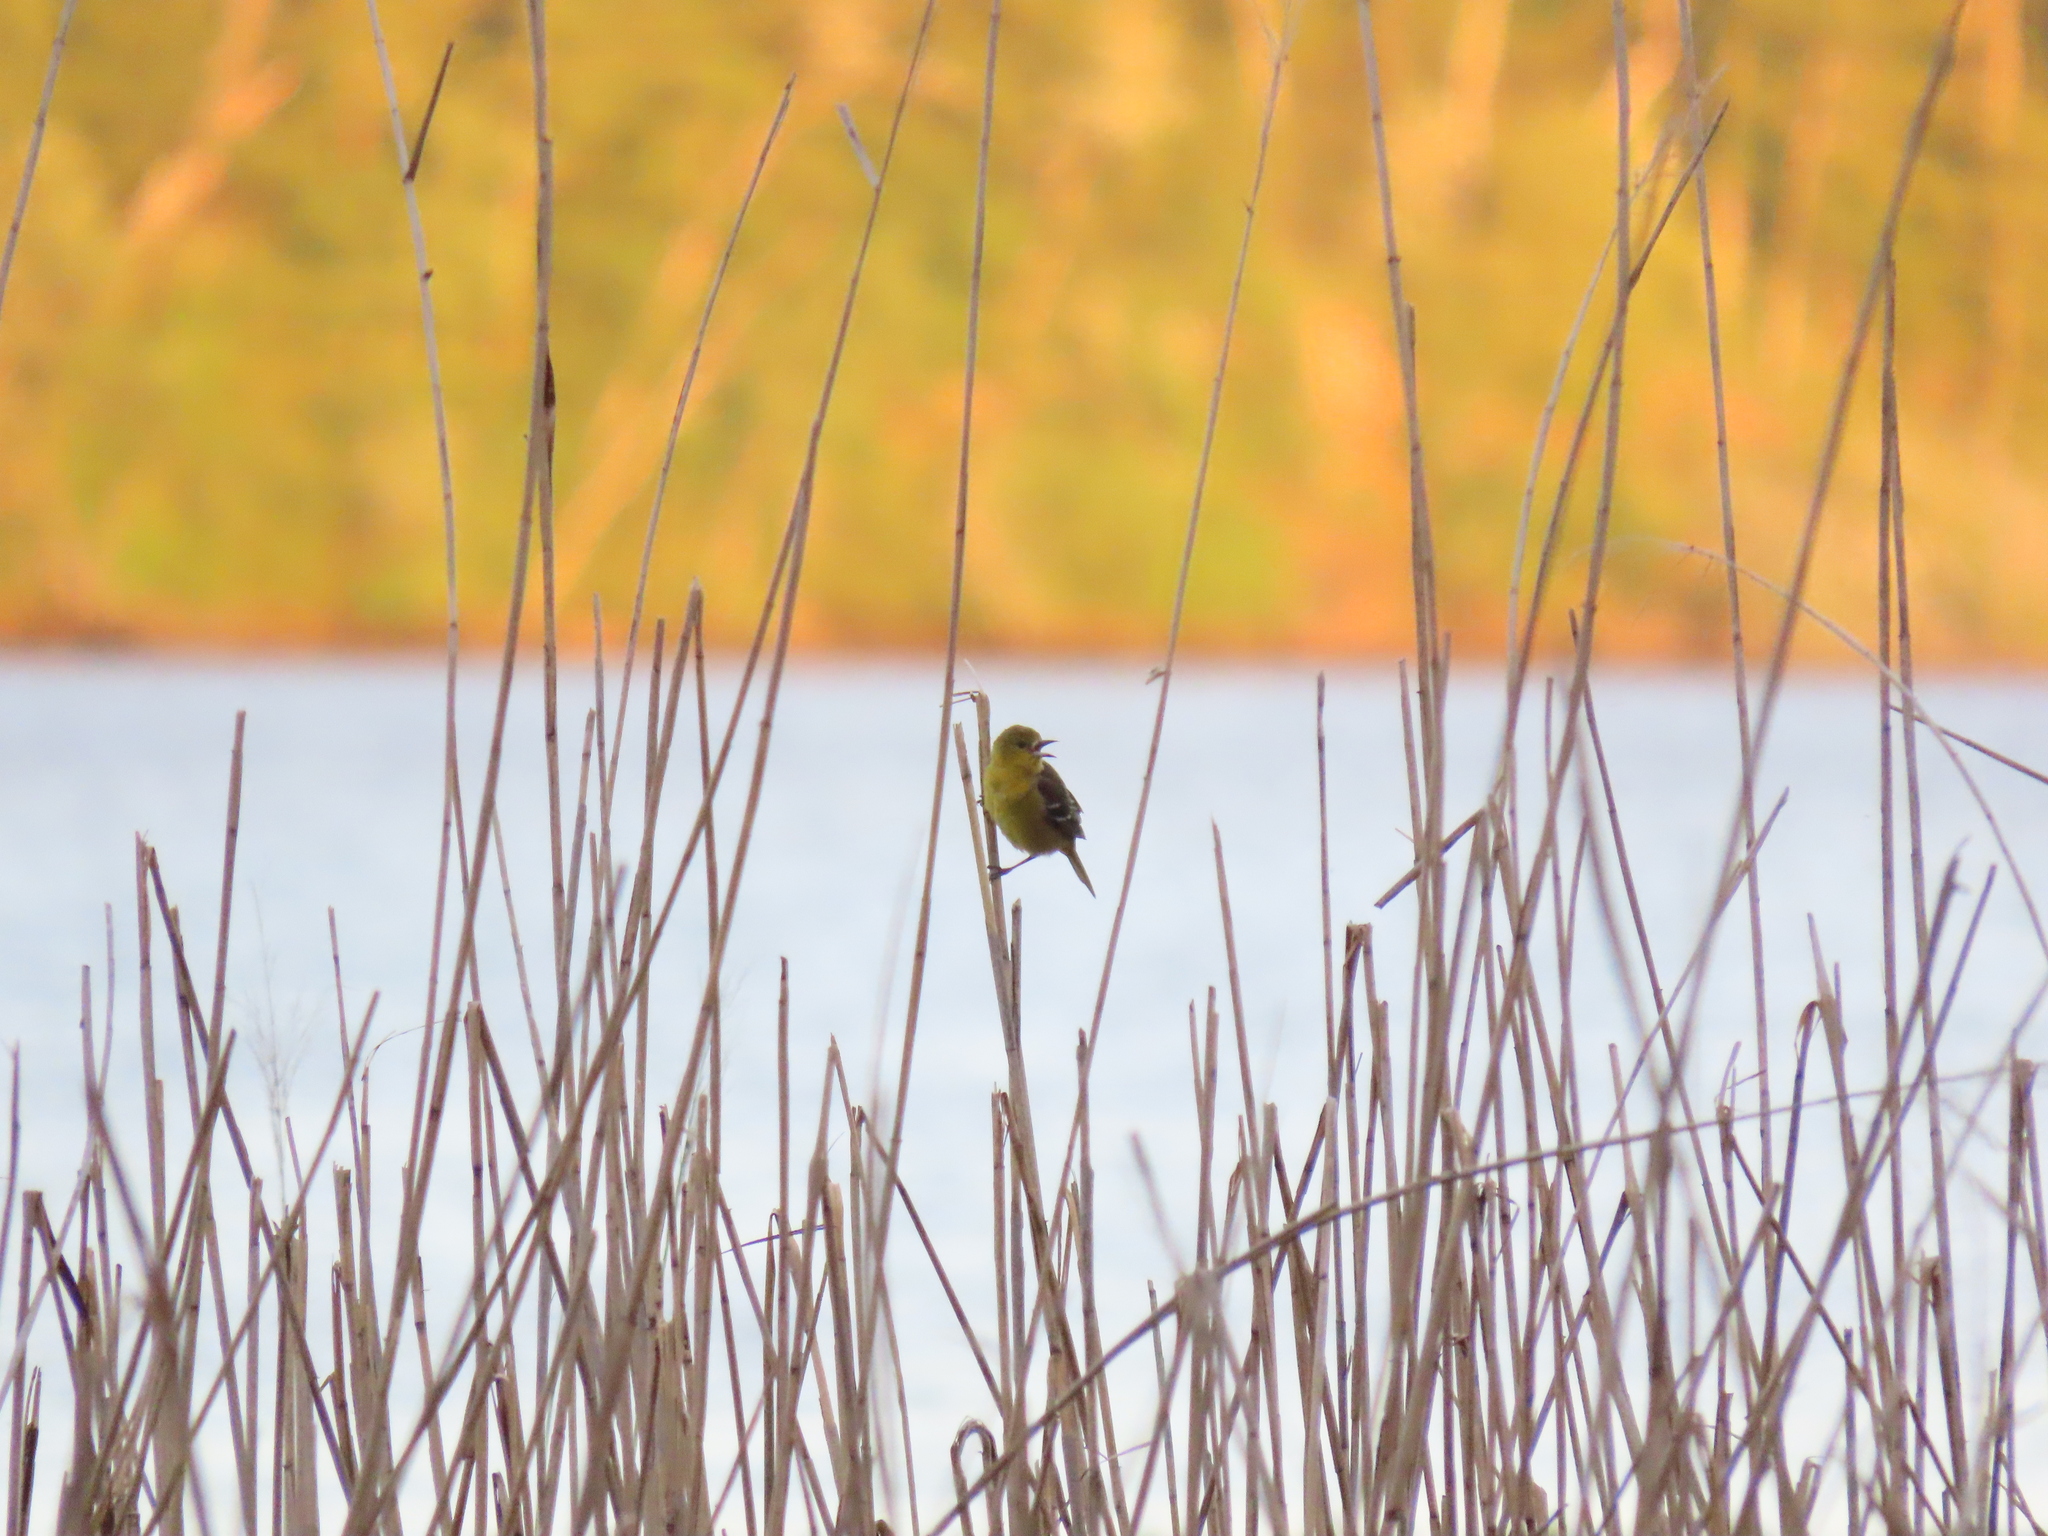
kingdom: Animalia
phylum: Chordata
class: Aves
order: Passeriformes
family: Icteridae
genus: Icterus
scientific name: Icterus spurius
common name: Orchard oriole
